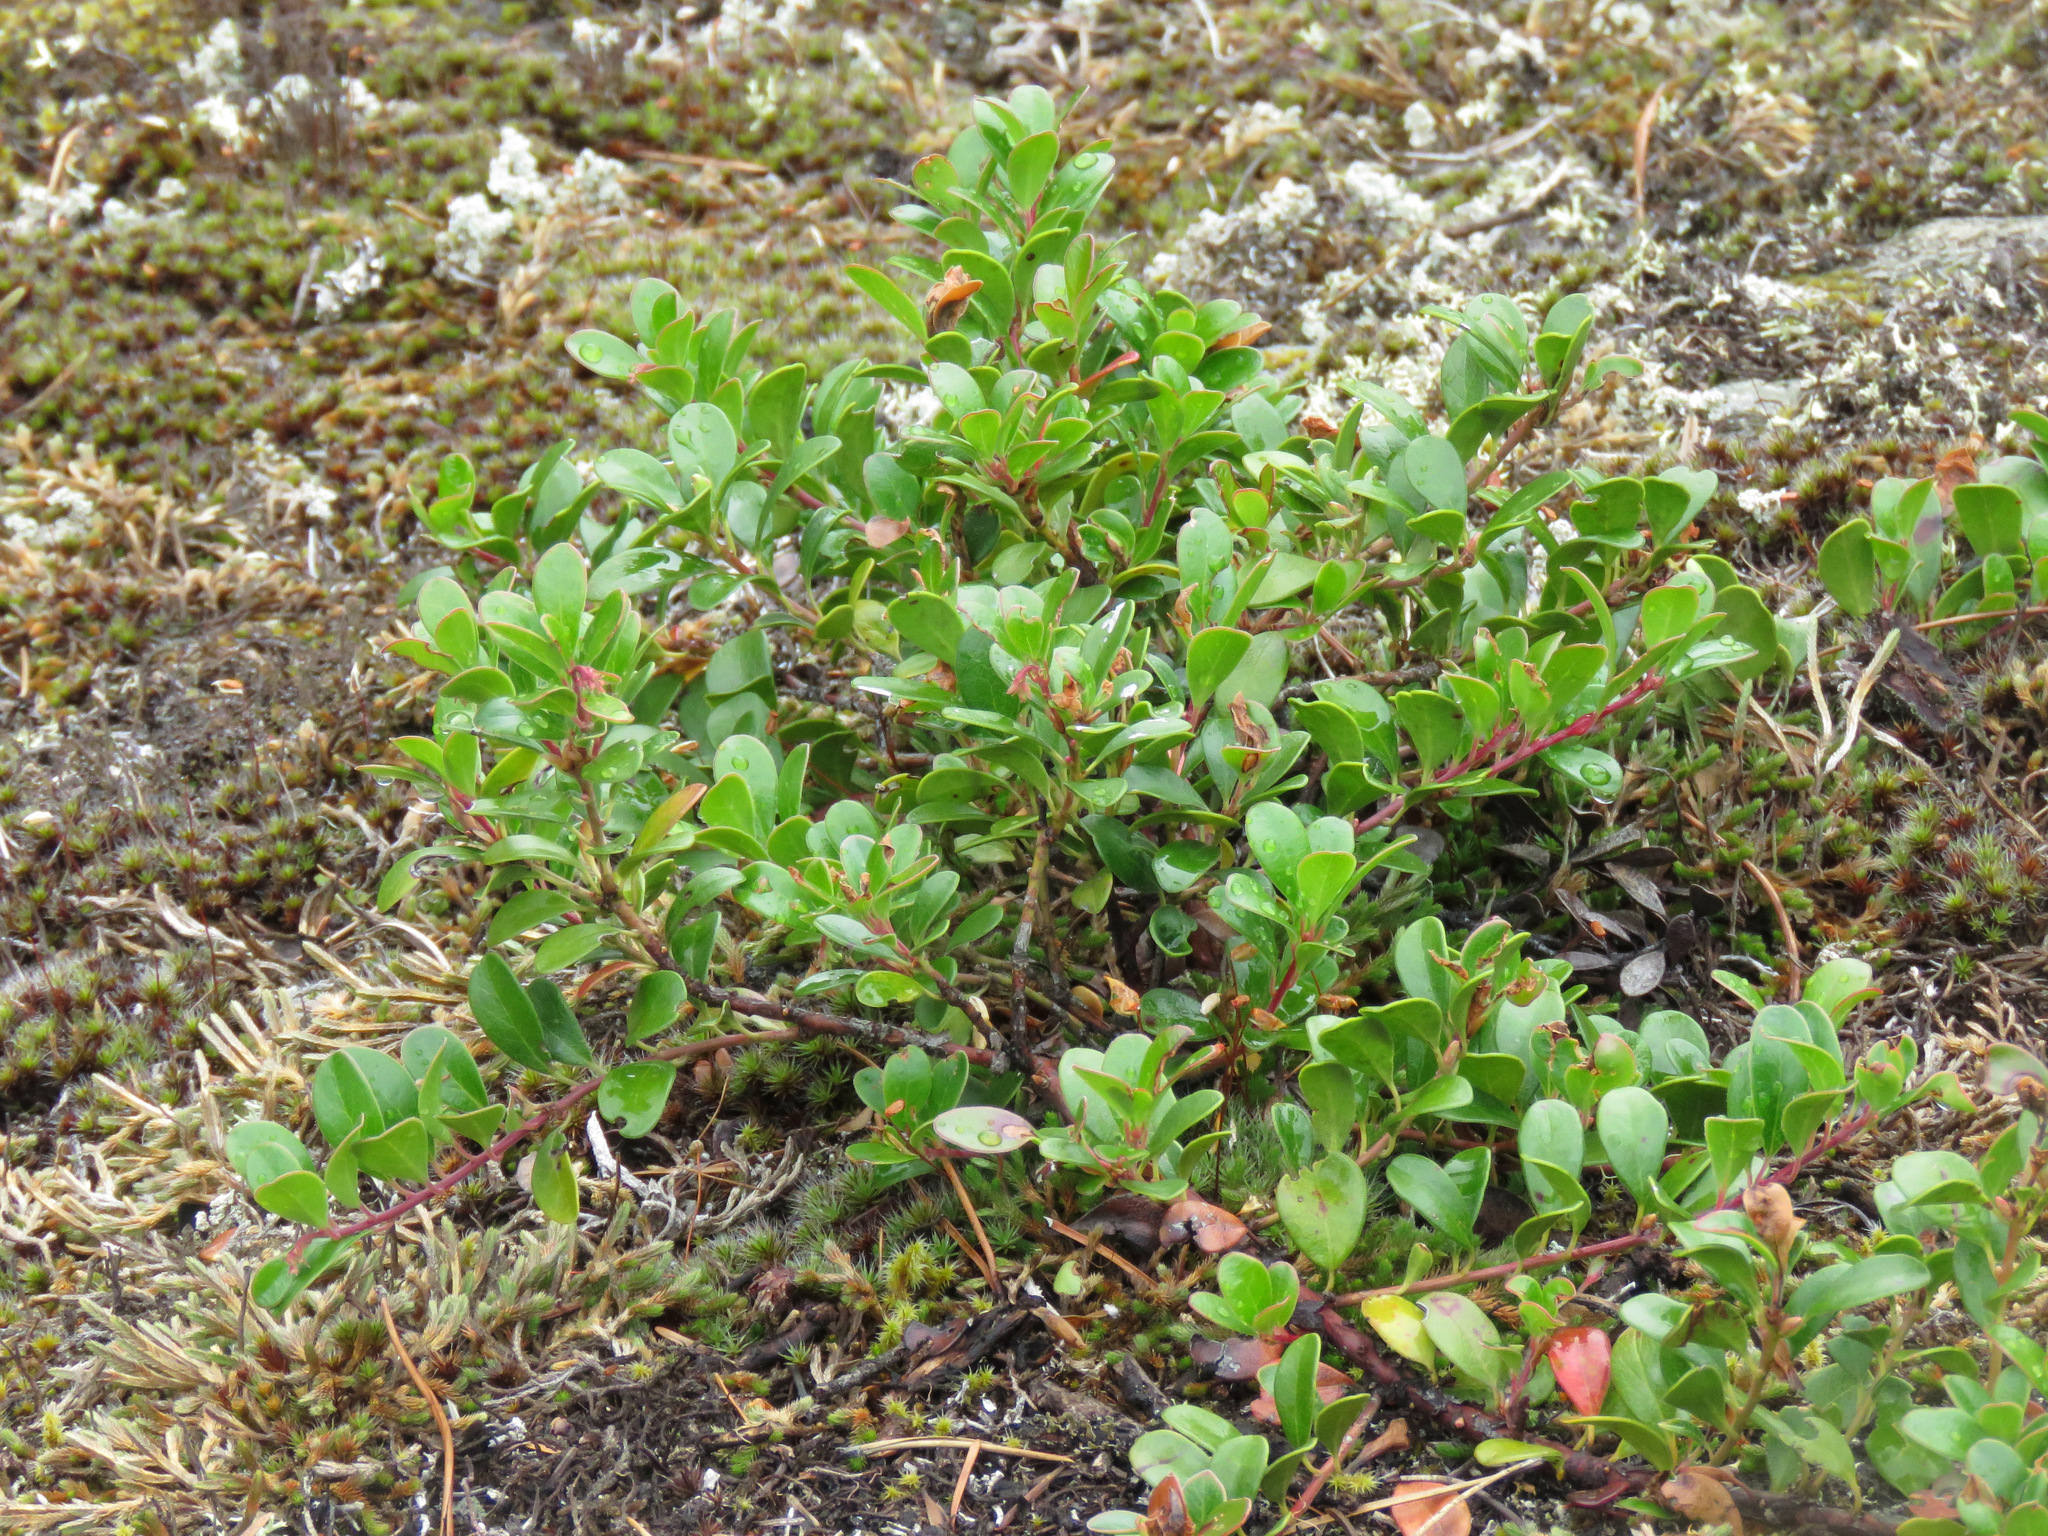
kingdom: Plantae
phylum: Tracheophyta
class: Magnoliopsida
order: Ericales
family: Ericaceae
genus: Arctostaphylos
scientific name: Arctostaphylos uva-ursi
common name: Bearberry
